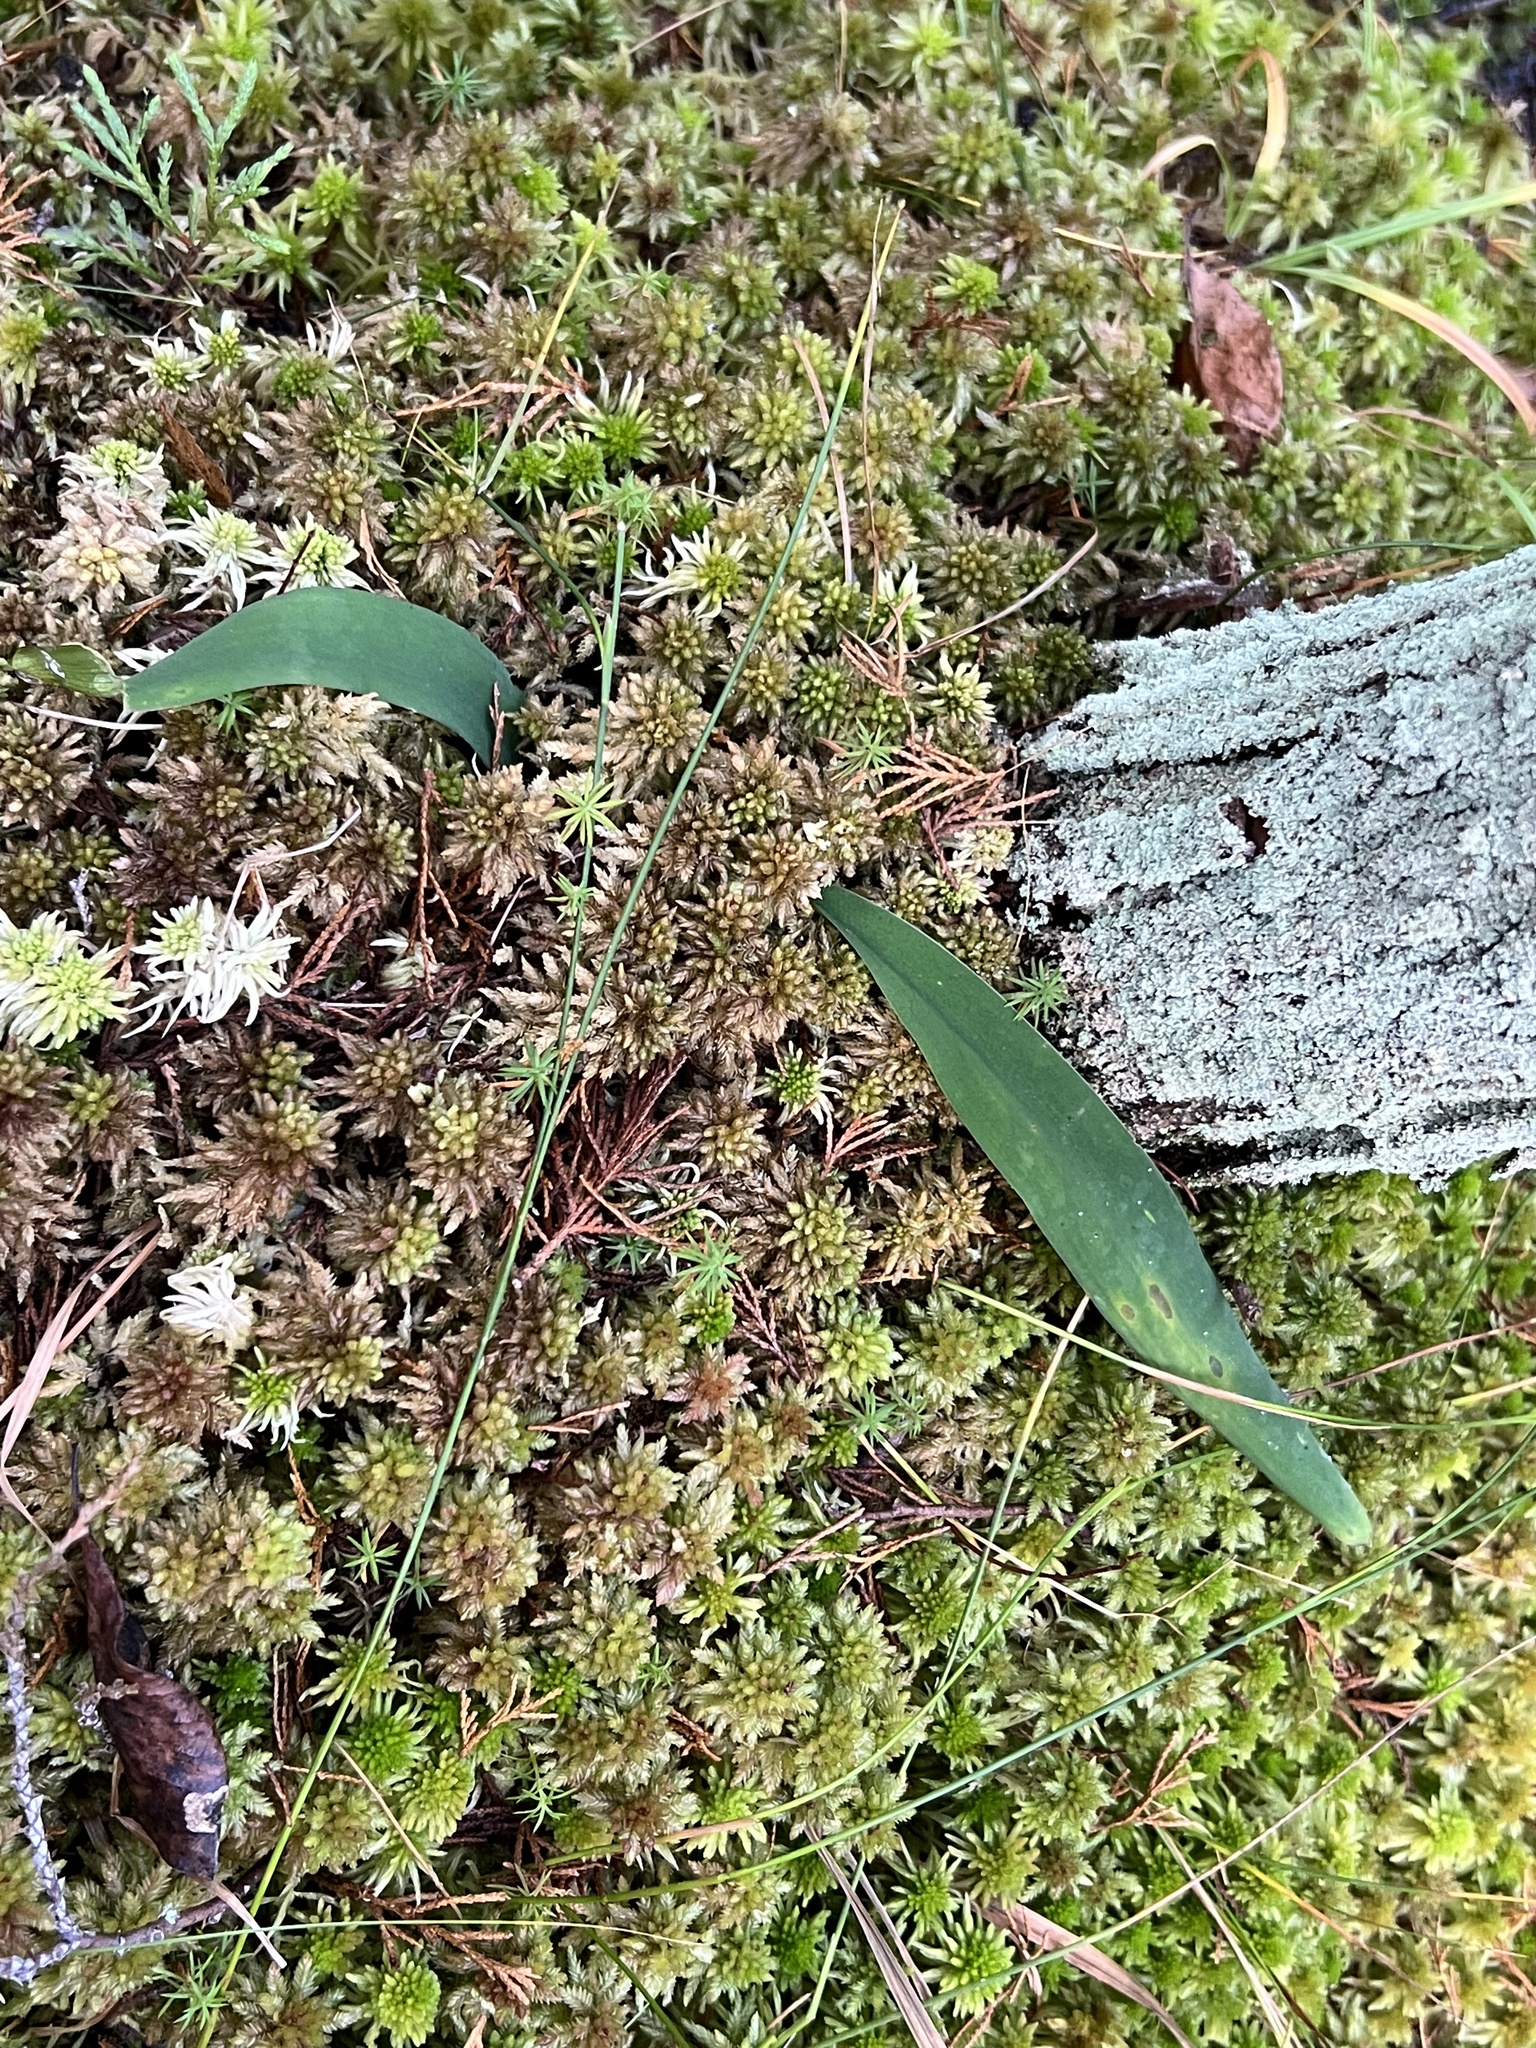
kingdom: Plantae
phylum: Tracheophyta
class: Liliopsida
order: Alismatales
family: Araceae
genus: Orontium
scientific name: Orontium aquaticum
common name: Golden-club
